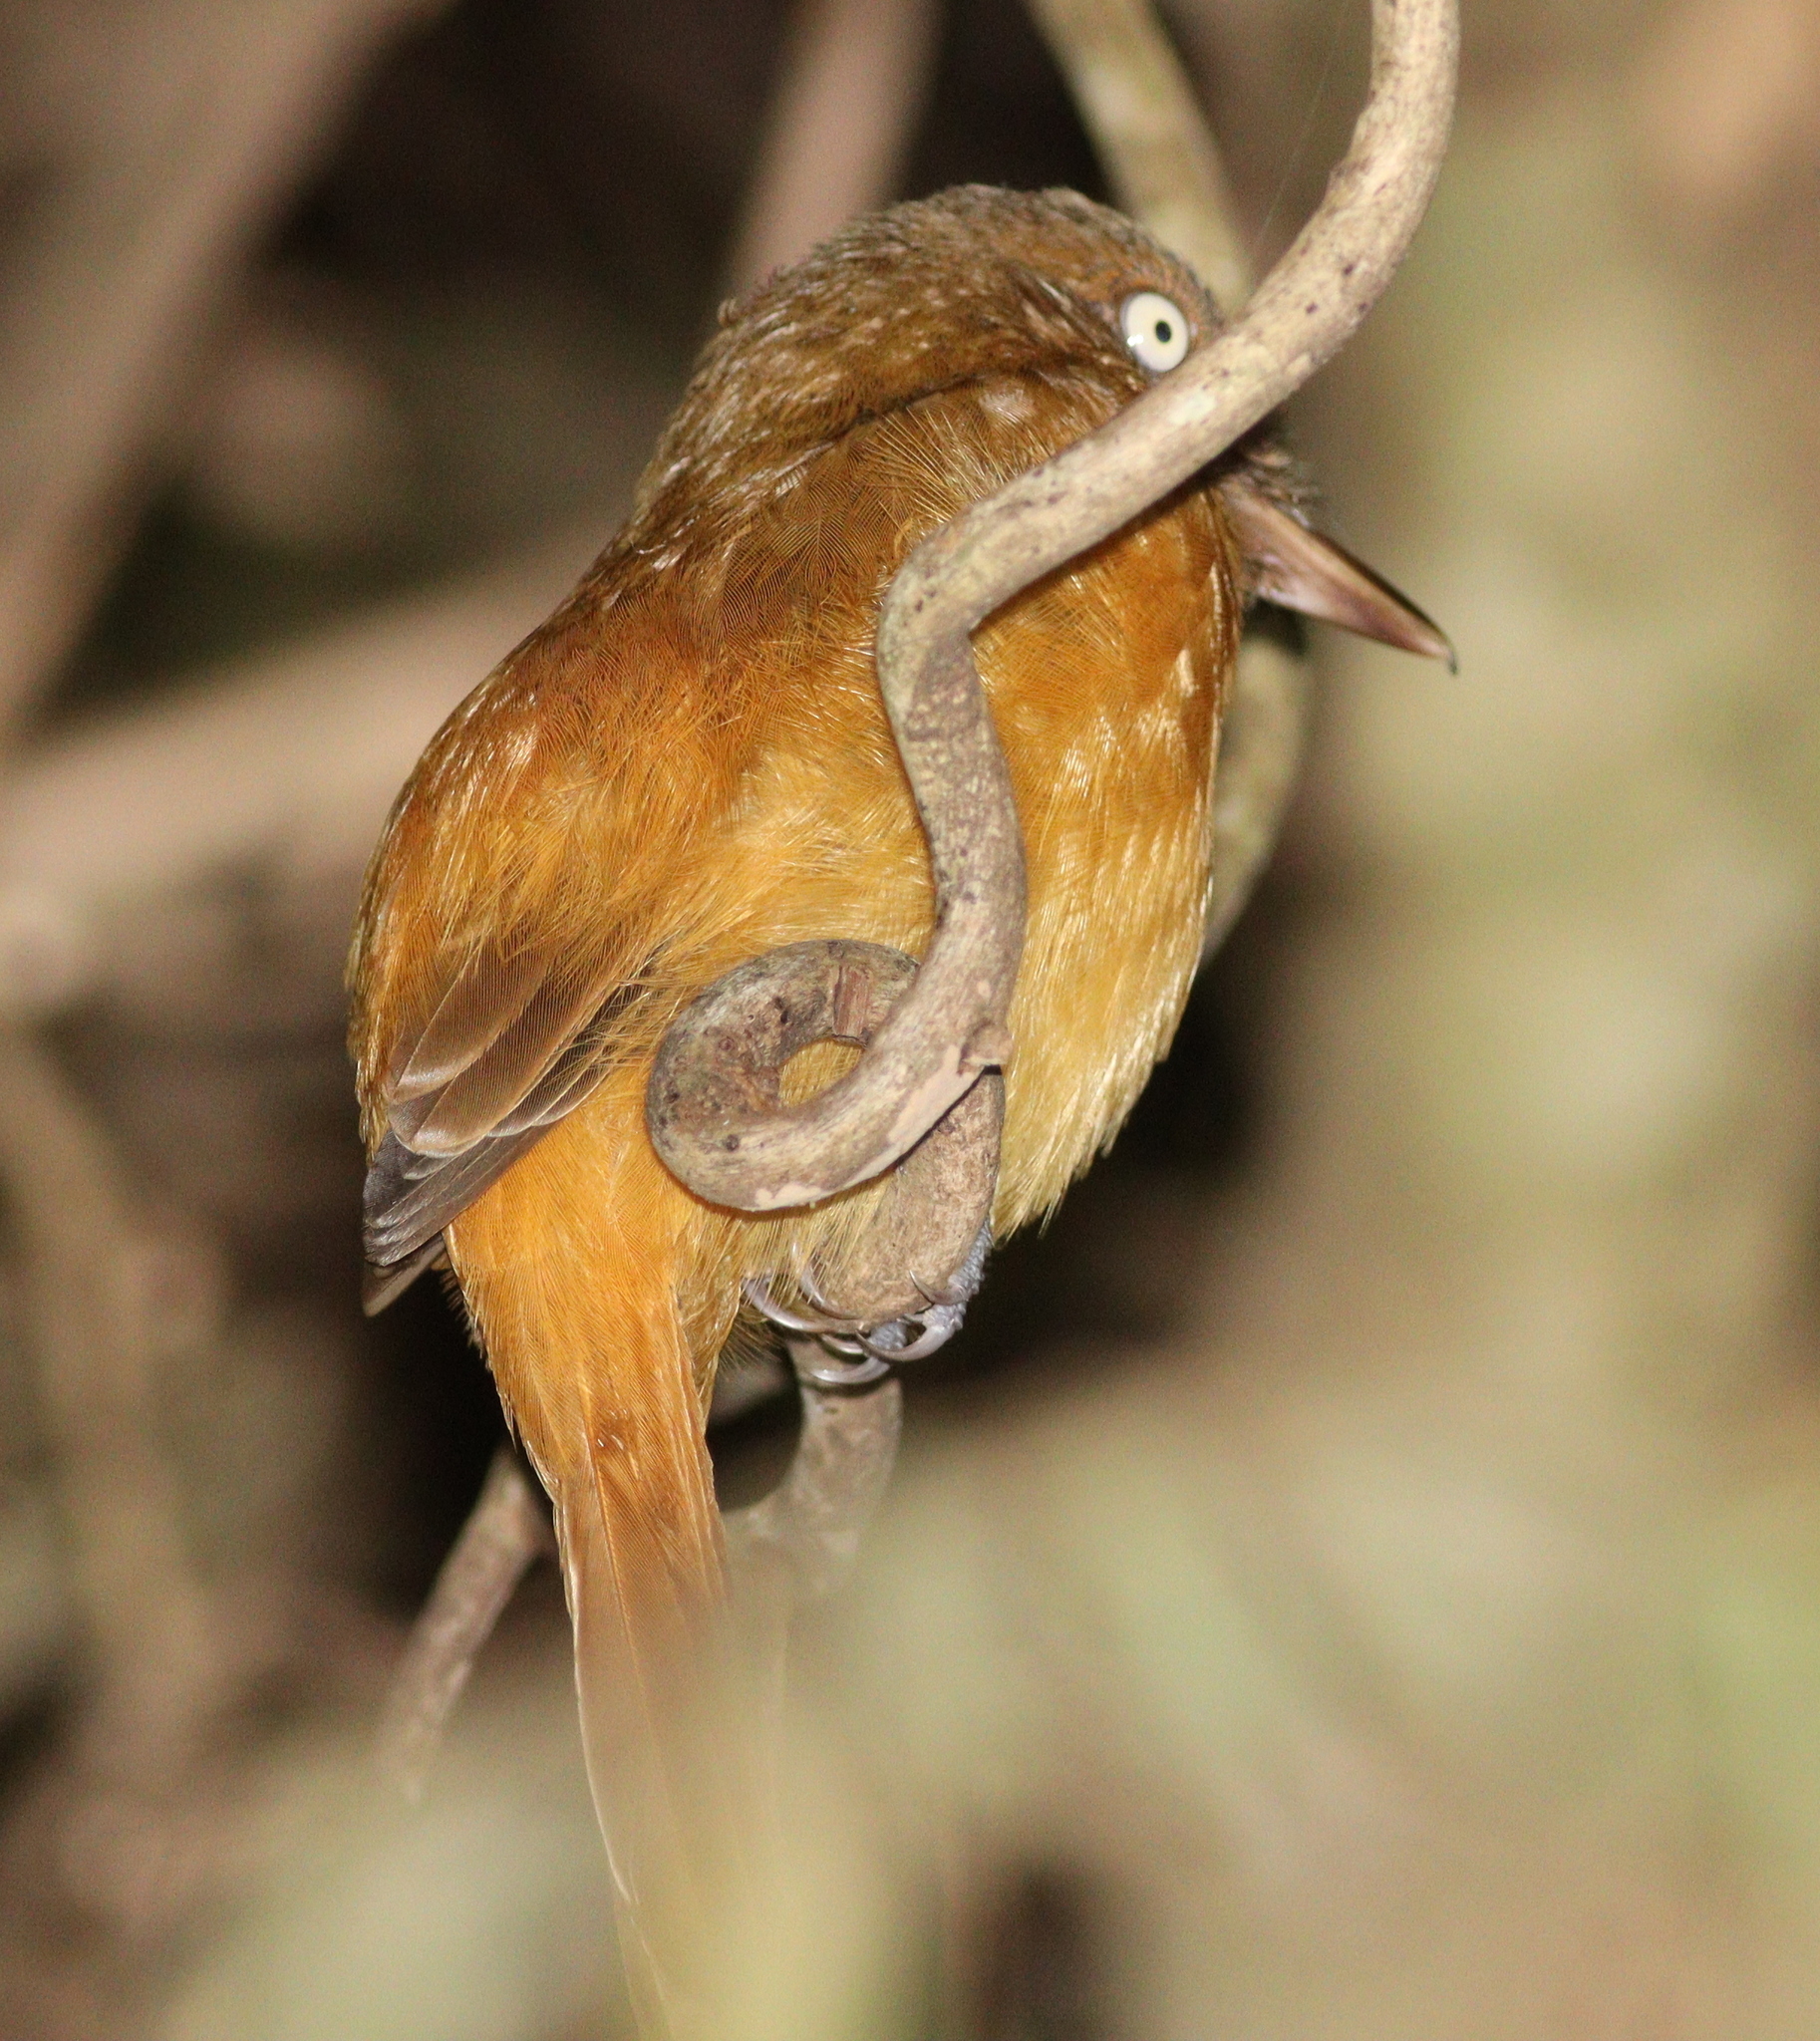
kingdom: Animalia
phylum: Chordata
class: Aves
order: Passeriformes
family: Tyrannidae
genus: Attila
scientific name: Attila bolivianus
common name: White-eyed attila
